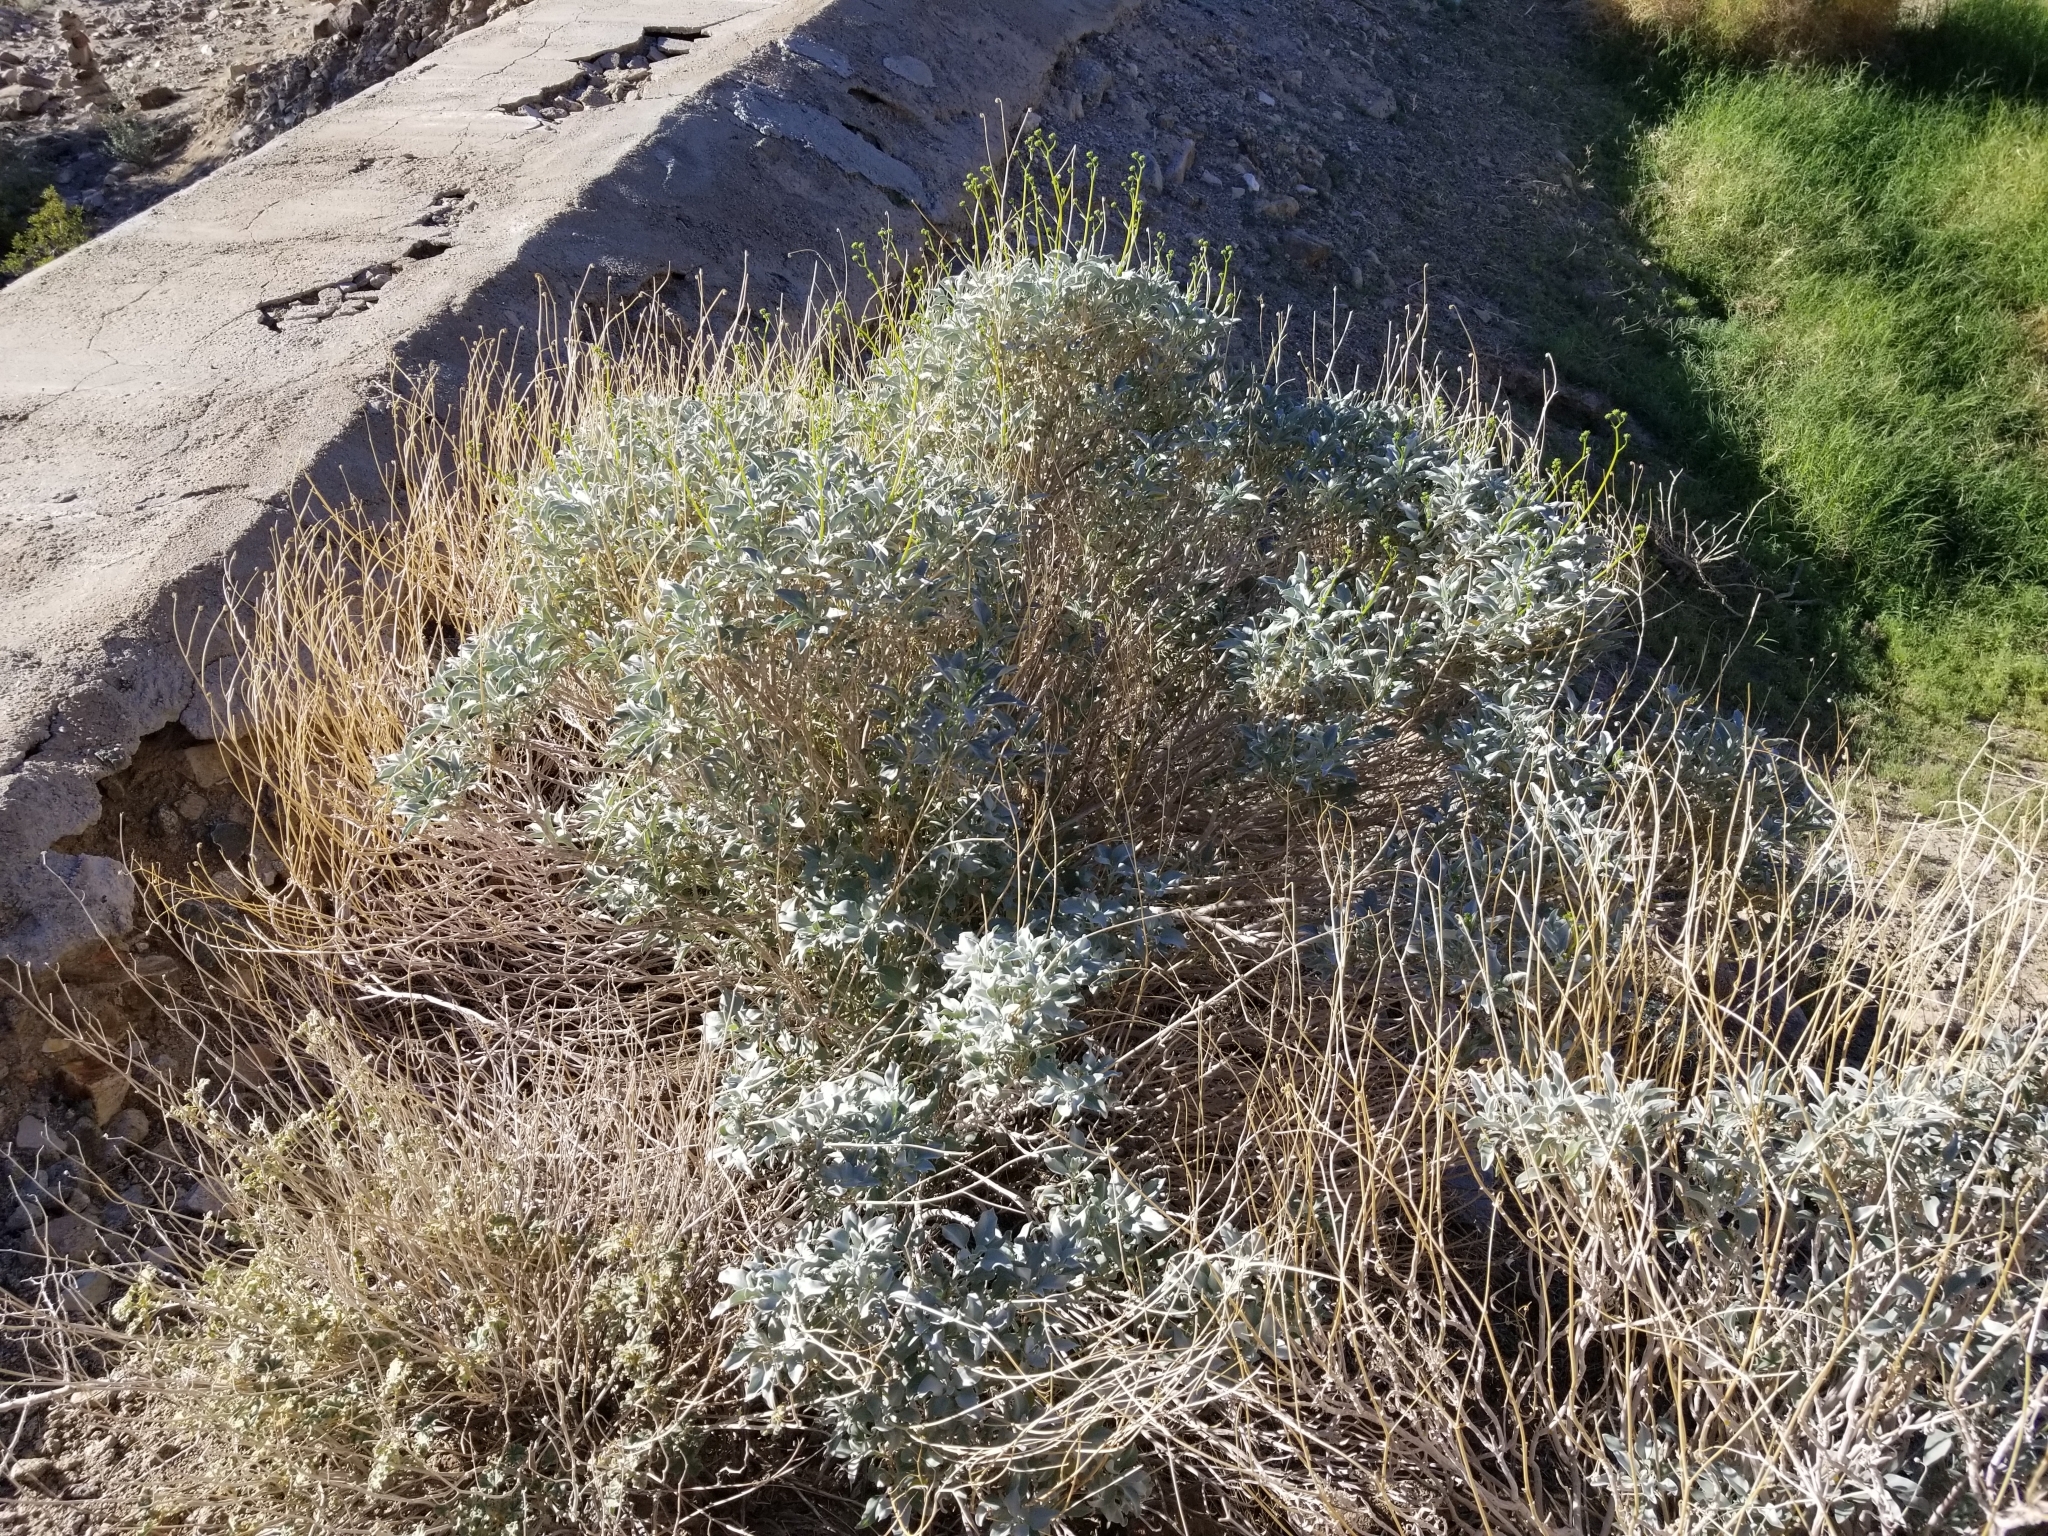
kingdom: Plantae
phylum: Tracheophyta
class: Magnoliopsida
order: Asterales
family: Asteraceae
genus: Encelia
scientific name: Encelia farinosa
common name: Brittlebush
